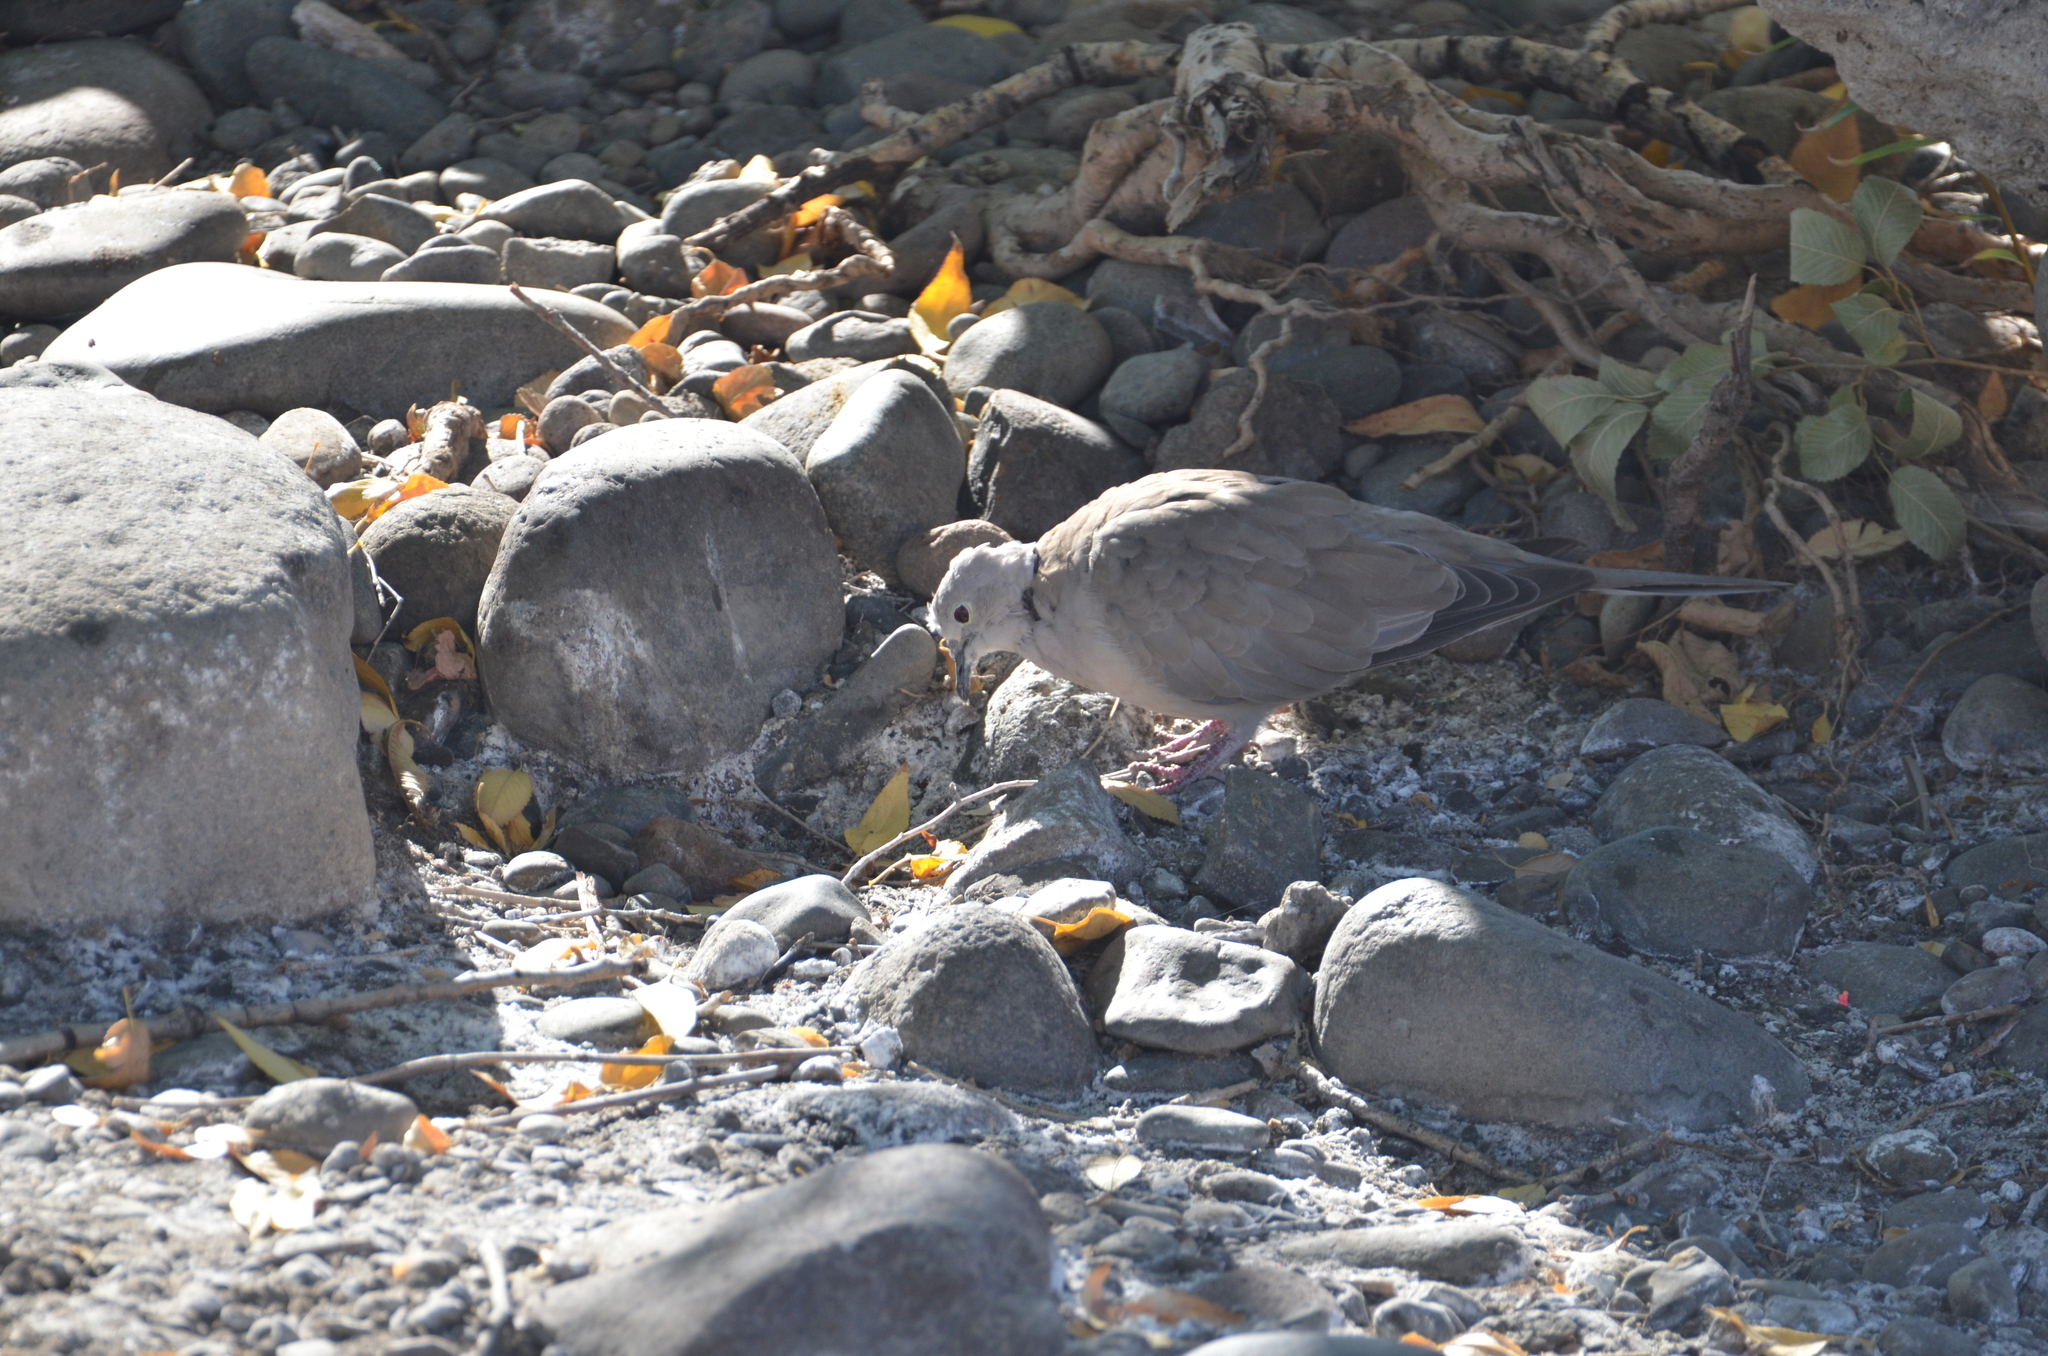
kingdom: Animalia
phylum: Chordata
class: Aves
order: Columbiformes
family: Columbidae
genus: Streptopelia
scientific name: Streptopelia decaocto
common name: Eurasian collared dove
